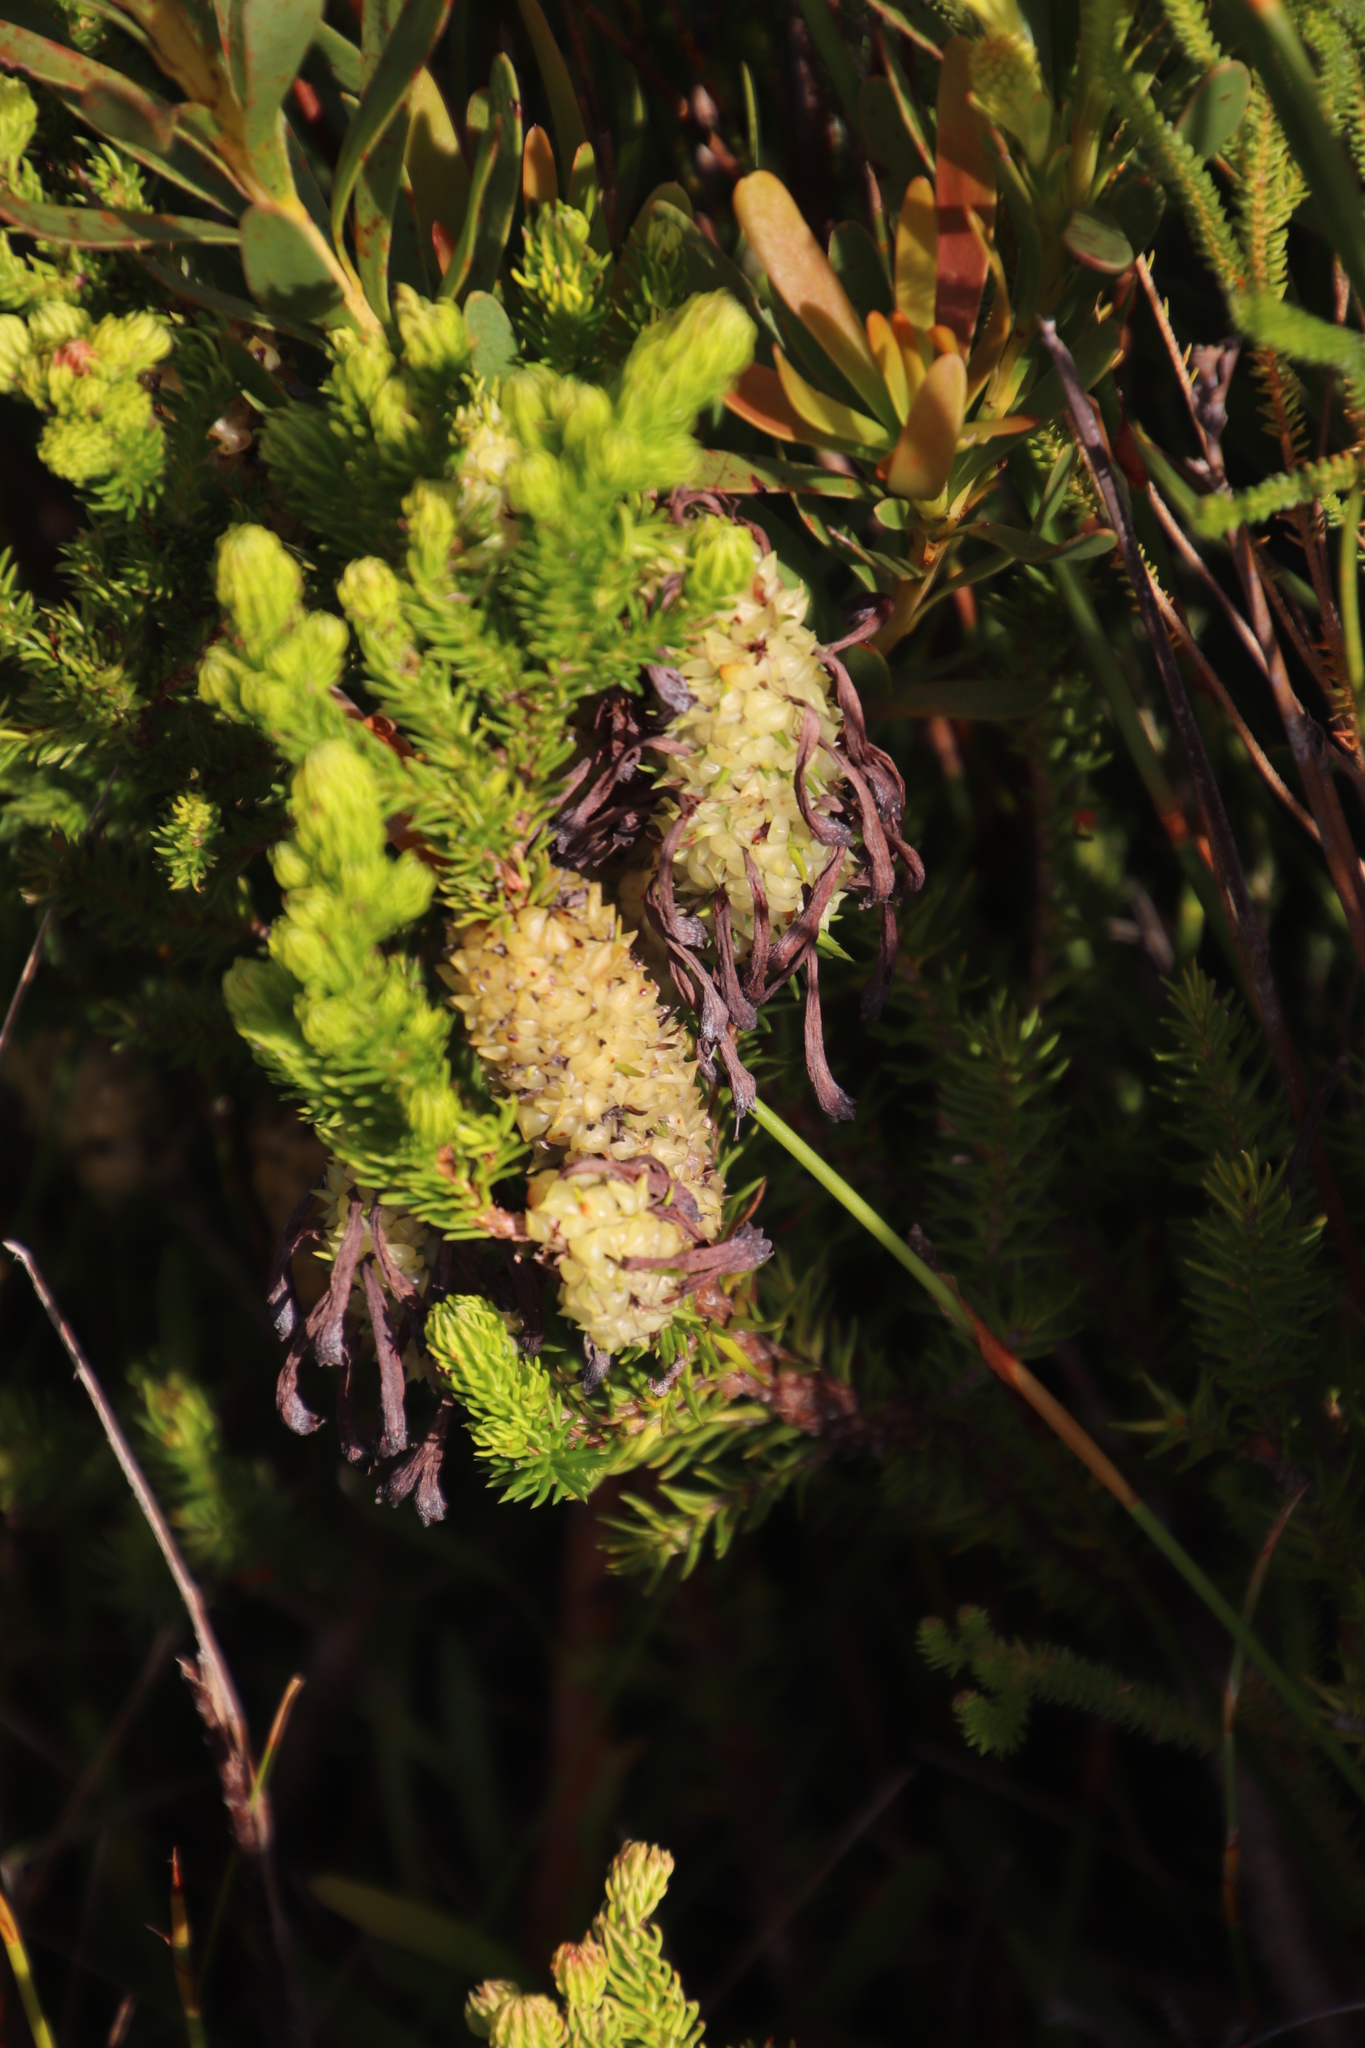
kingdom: Plantae
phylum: Tracheophyta
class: Magnoliopsida
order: Ericales
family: Ericaceae
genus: Erica
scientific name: Erica sessiliflora
